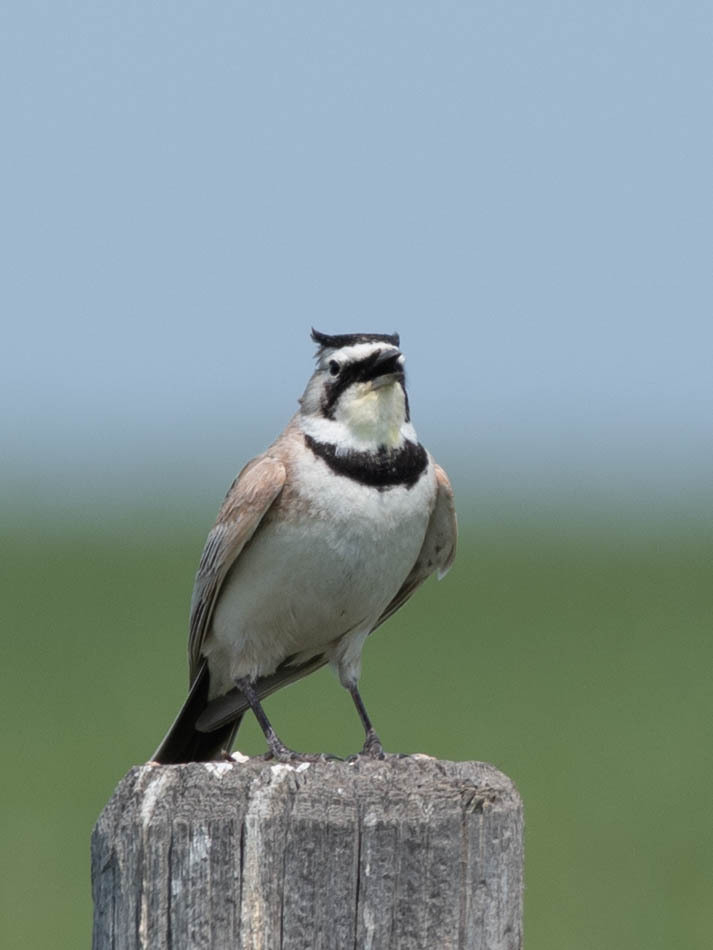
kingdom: Animalia
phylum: Chordata
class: Aves
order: Passeriformes
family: Alaudidae
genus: Eremophila
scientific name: Eremophila alpestris
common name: Horned lark
